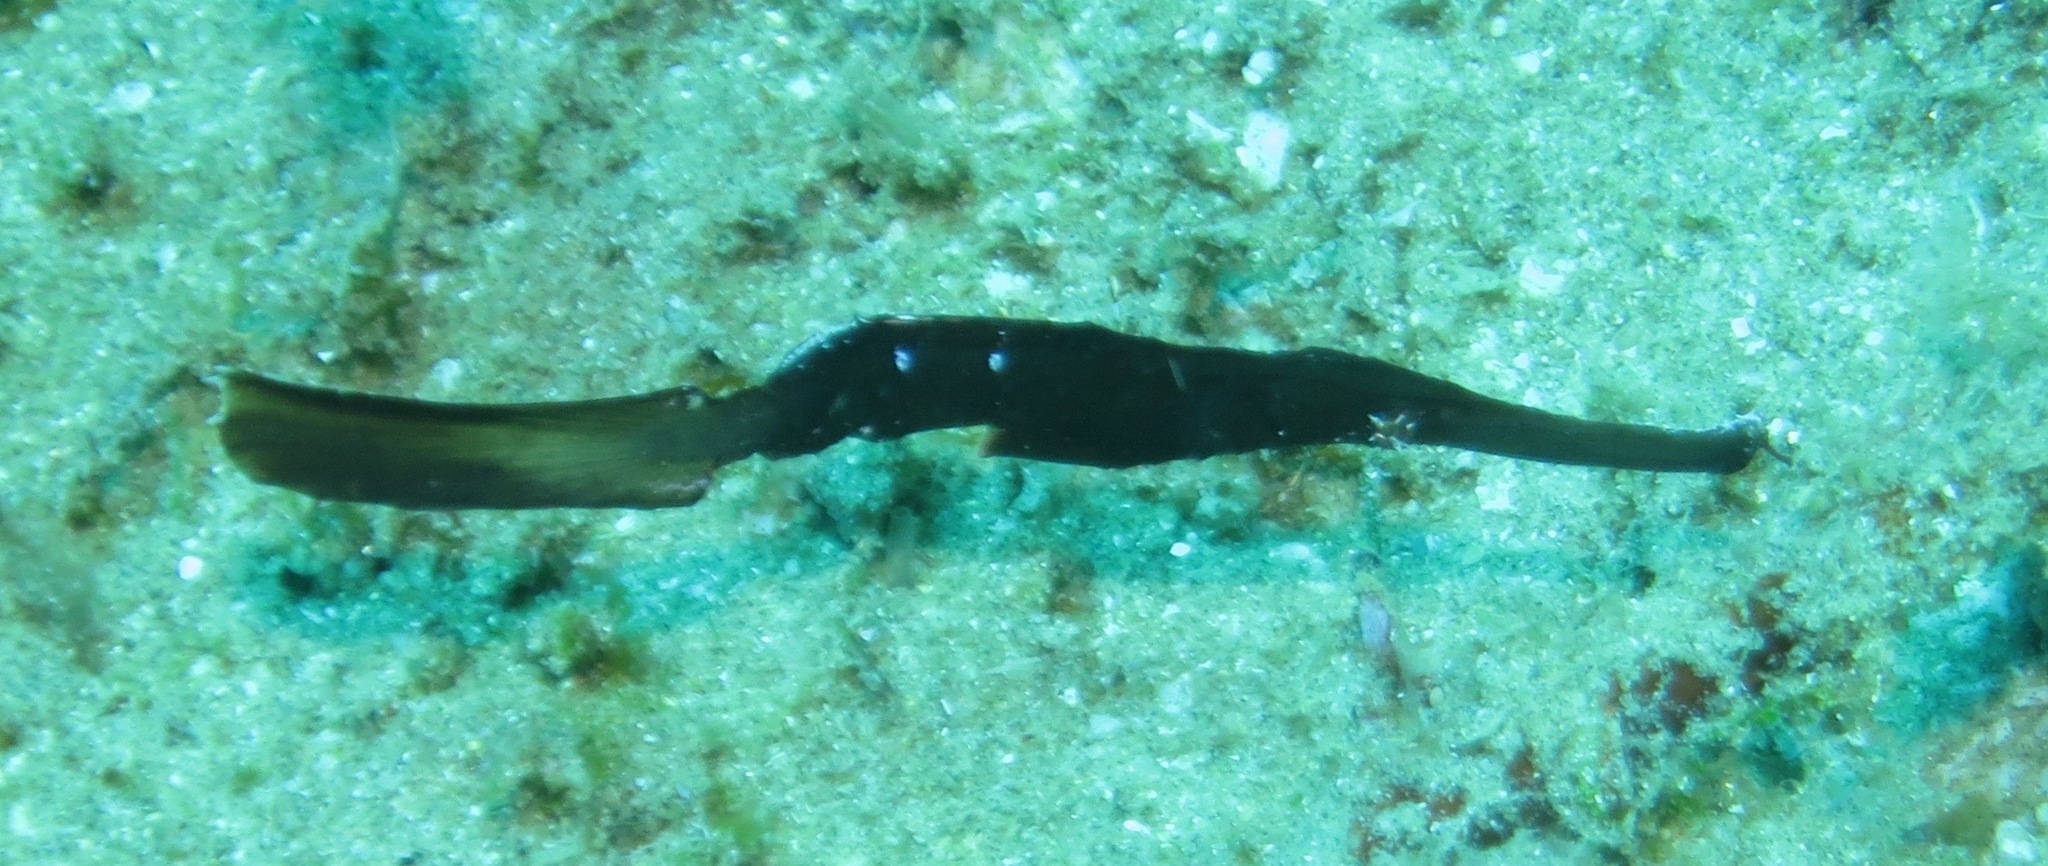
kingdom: Animalia
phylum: Chordata
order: Syngnathiformes
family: Solenostomidae
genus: Solenostomus
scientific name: Solenostomus cyanopterus
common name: Blue-finned ghost pipefish
